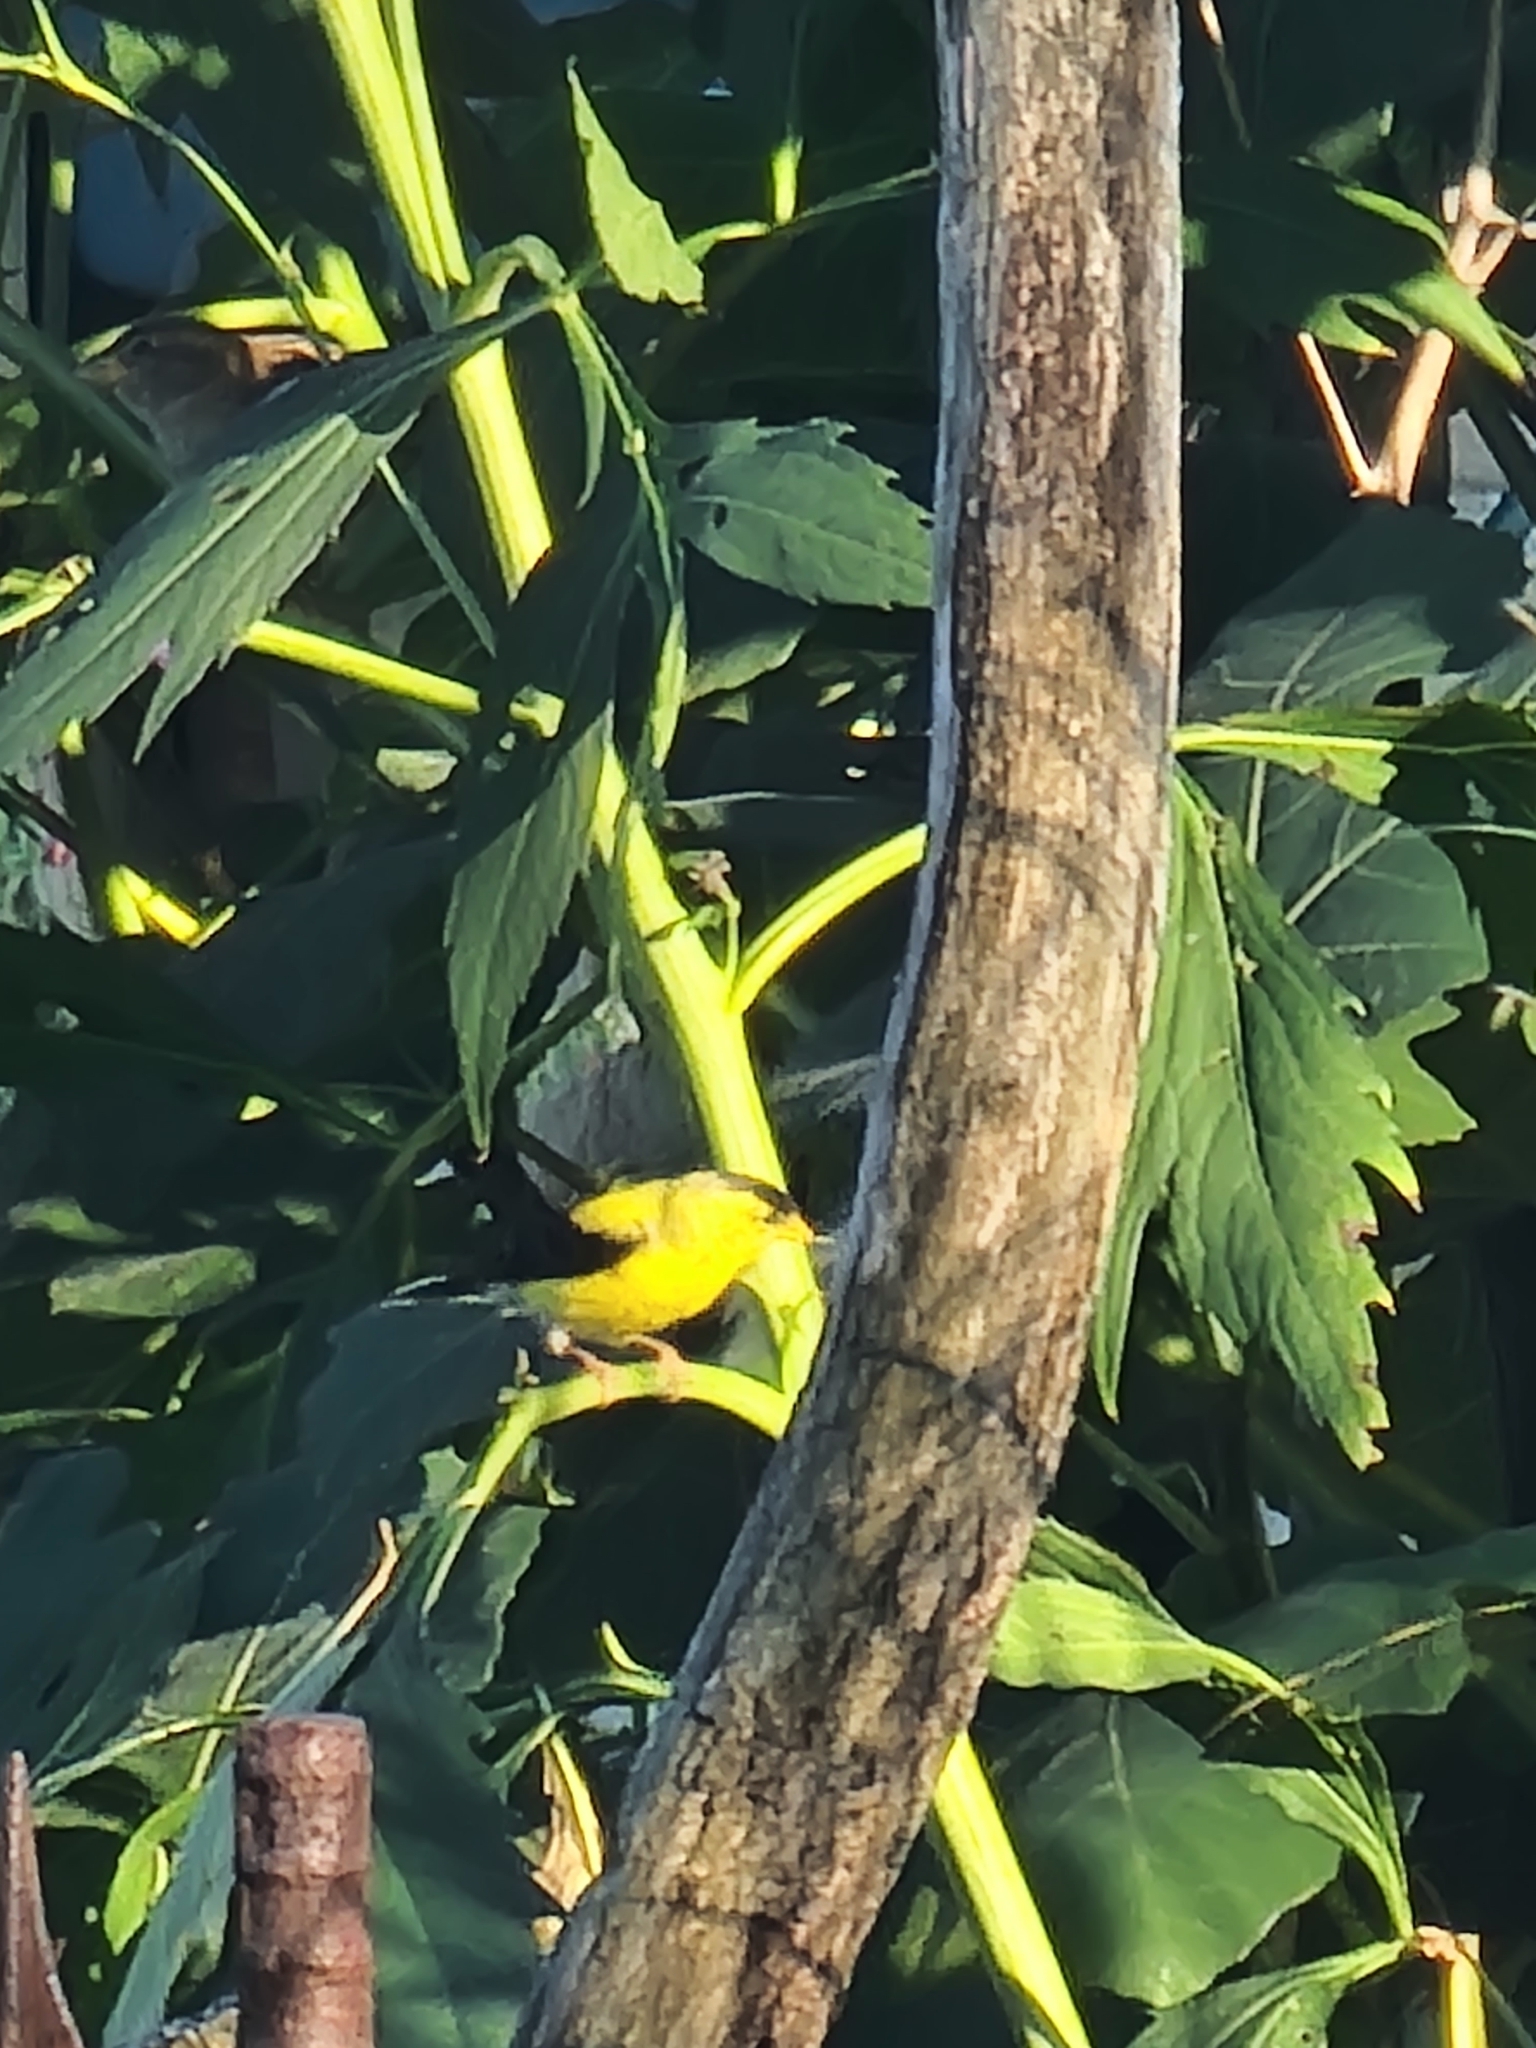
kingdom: Animalia
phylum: Chordata
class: Aves
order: Passeriformes
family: Fringillidae
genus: Spinus
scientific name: Spinus tristis
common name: American goldfinch
